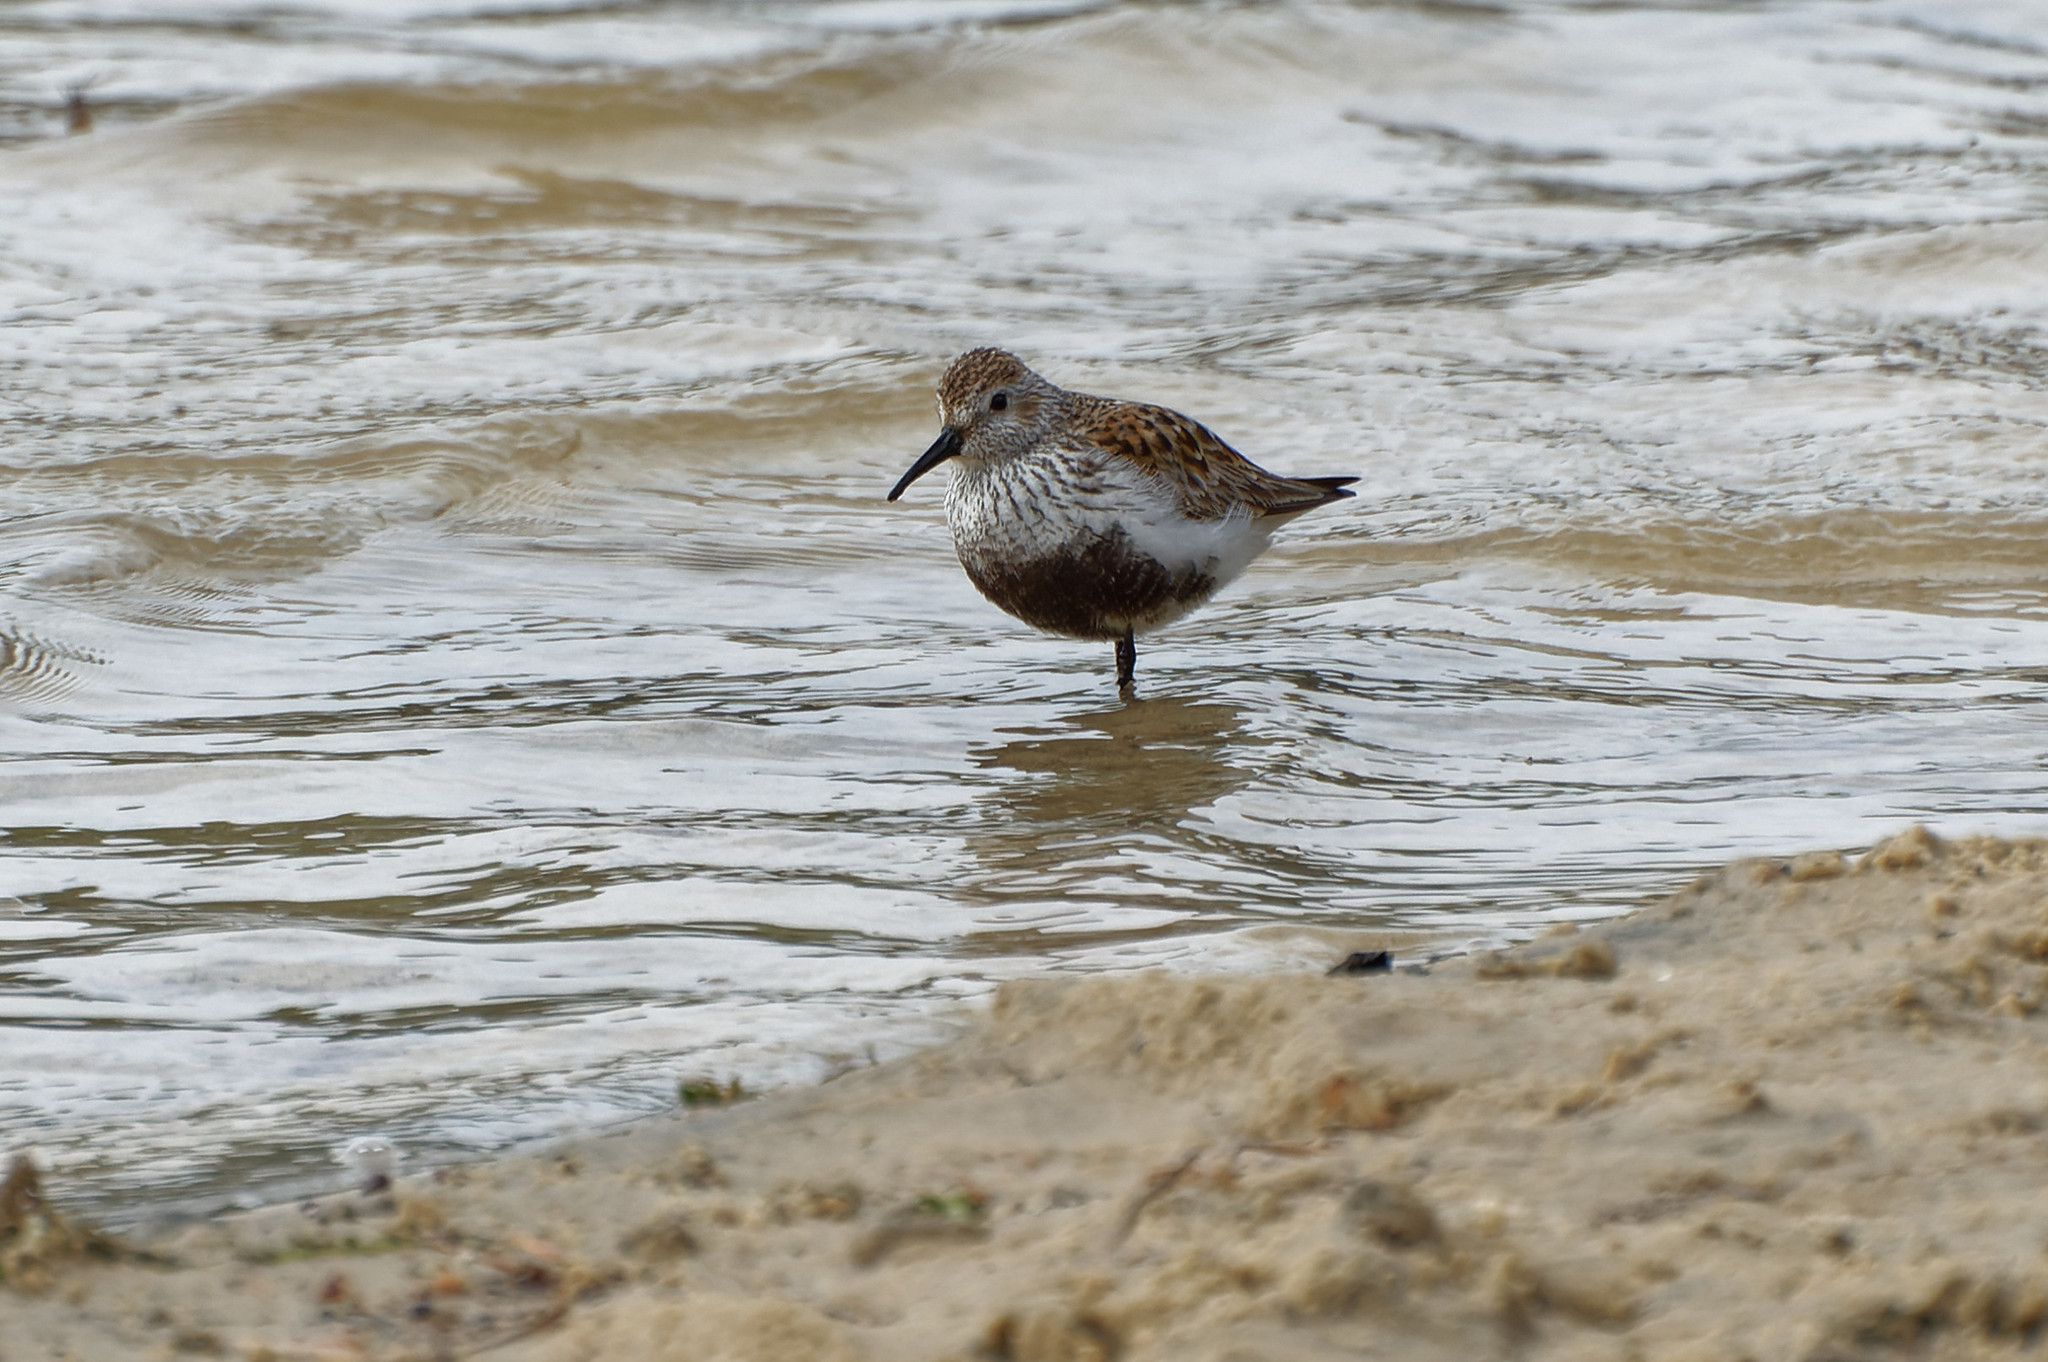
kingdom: Animalia
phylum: Chordata
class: Aves
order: Charadriiformes
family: Scolopacidae
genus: Calidris
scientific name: Calidris alpina
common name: Dunlin
